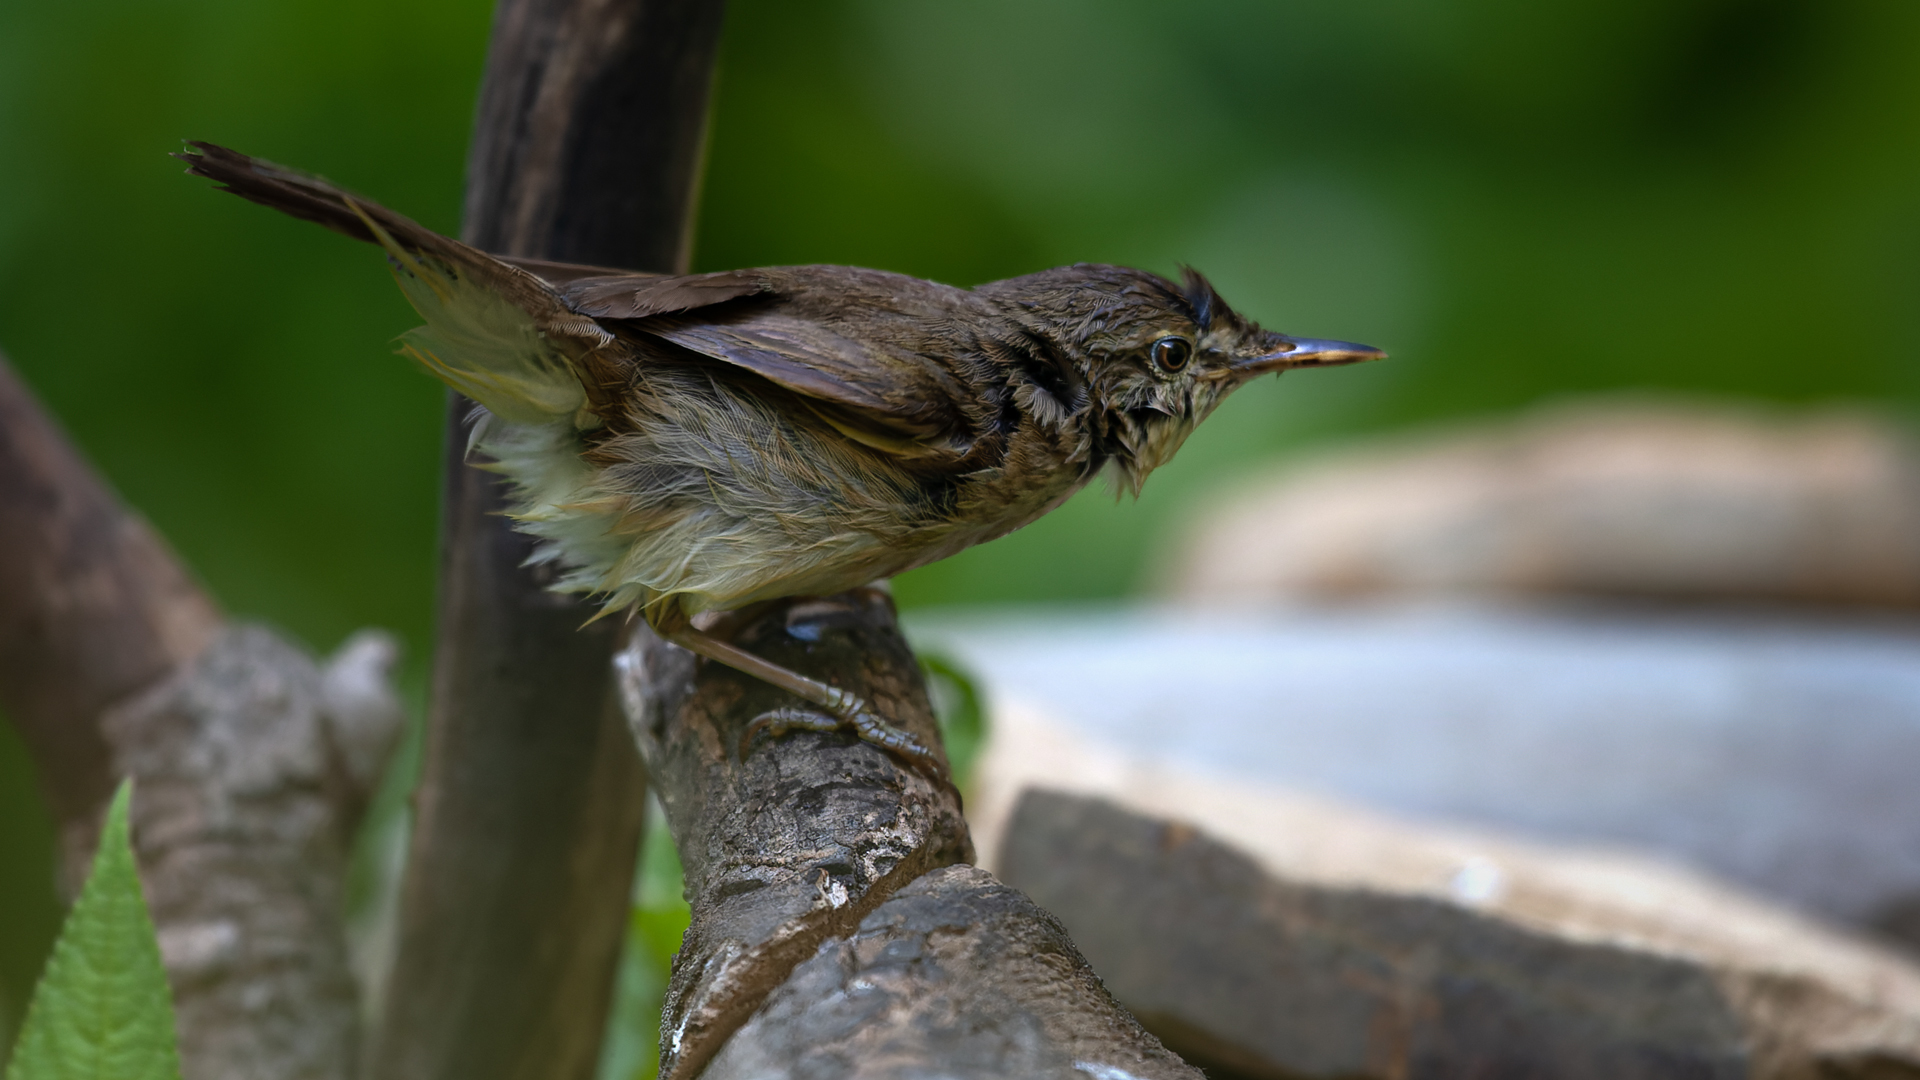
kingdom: Animalia
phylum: Chordata
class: Aves
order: Passeriformes
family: Acrocephalidae
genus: Acrocephalus
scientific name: Acrocephalus dumetorum
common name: Blyth's reed warbler
